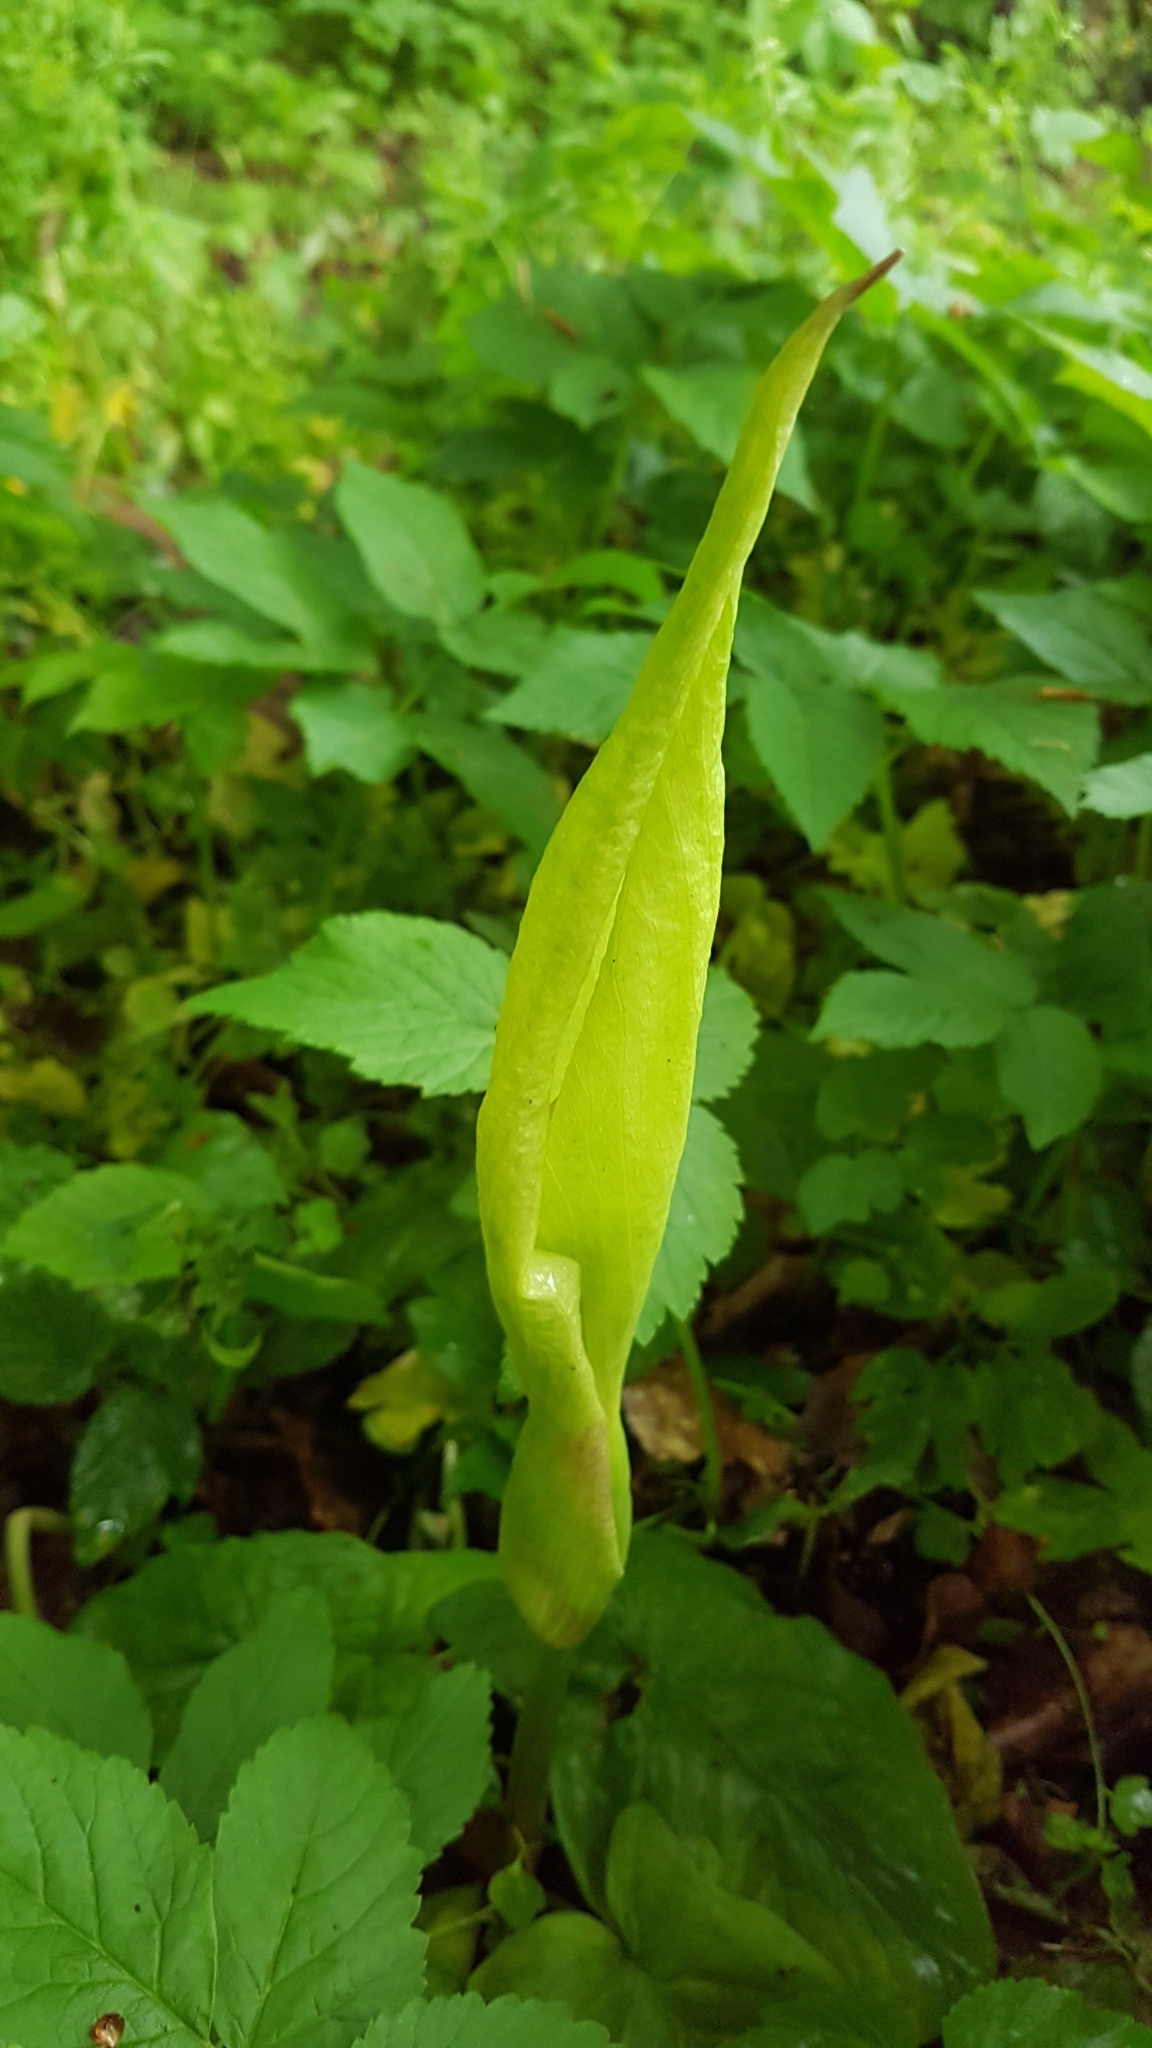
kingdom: Plantae
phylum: Tracheophyta
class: Liliopsida
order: Alismatales
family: Araceae
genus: Arum
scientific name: Arum maculatum
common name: Lords-and-ladies
